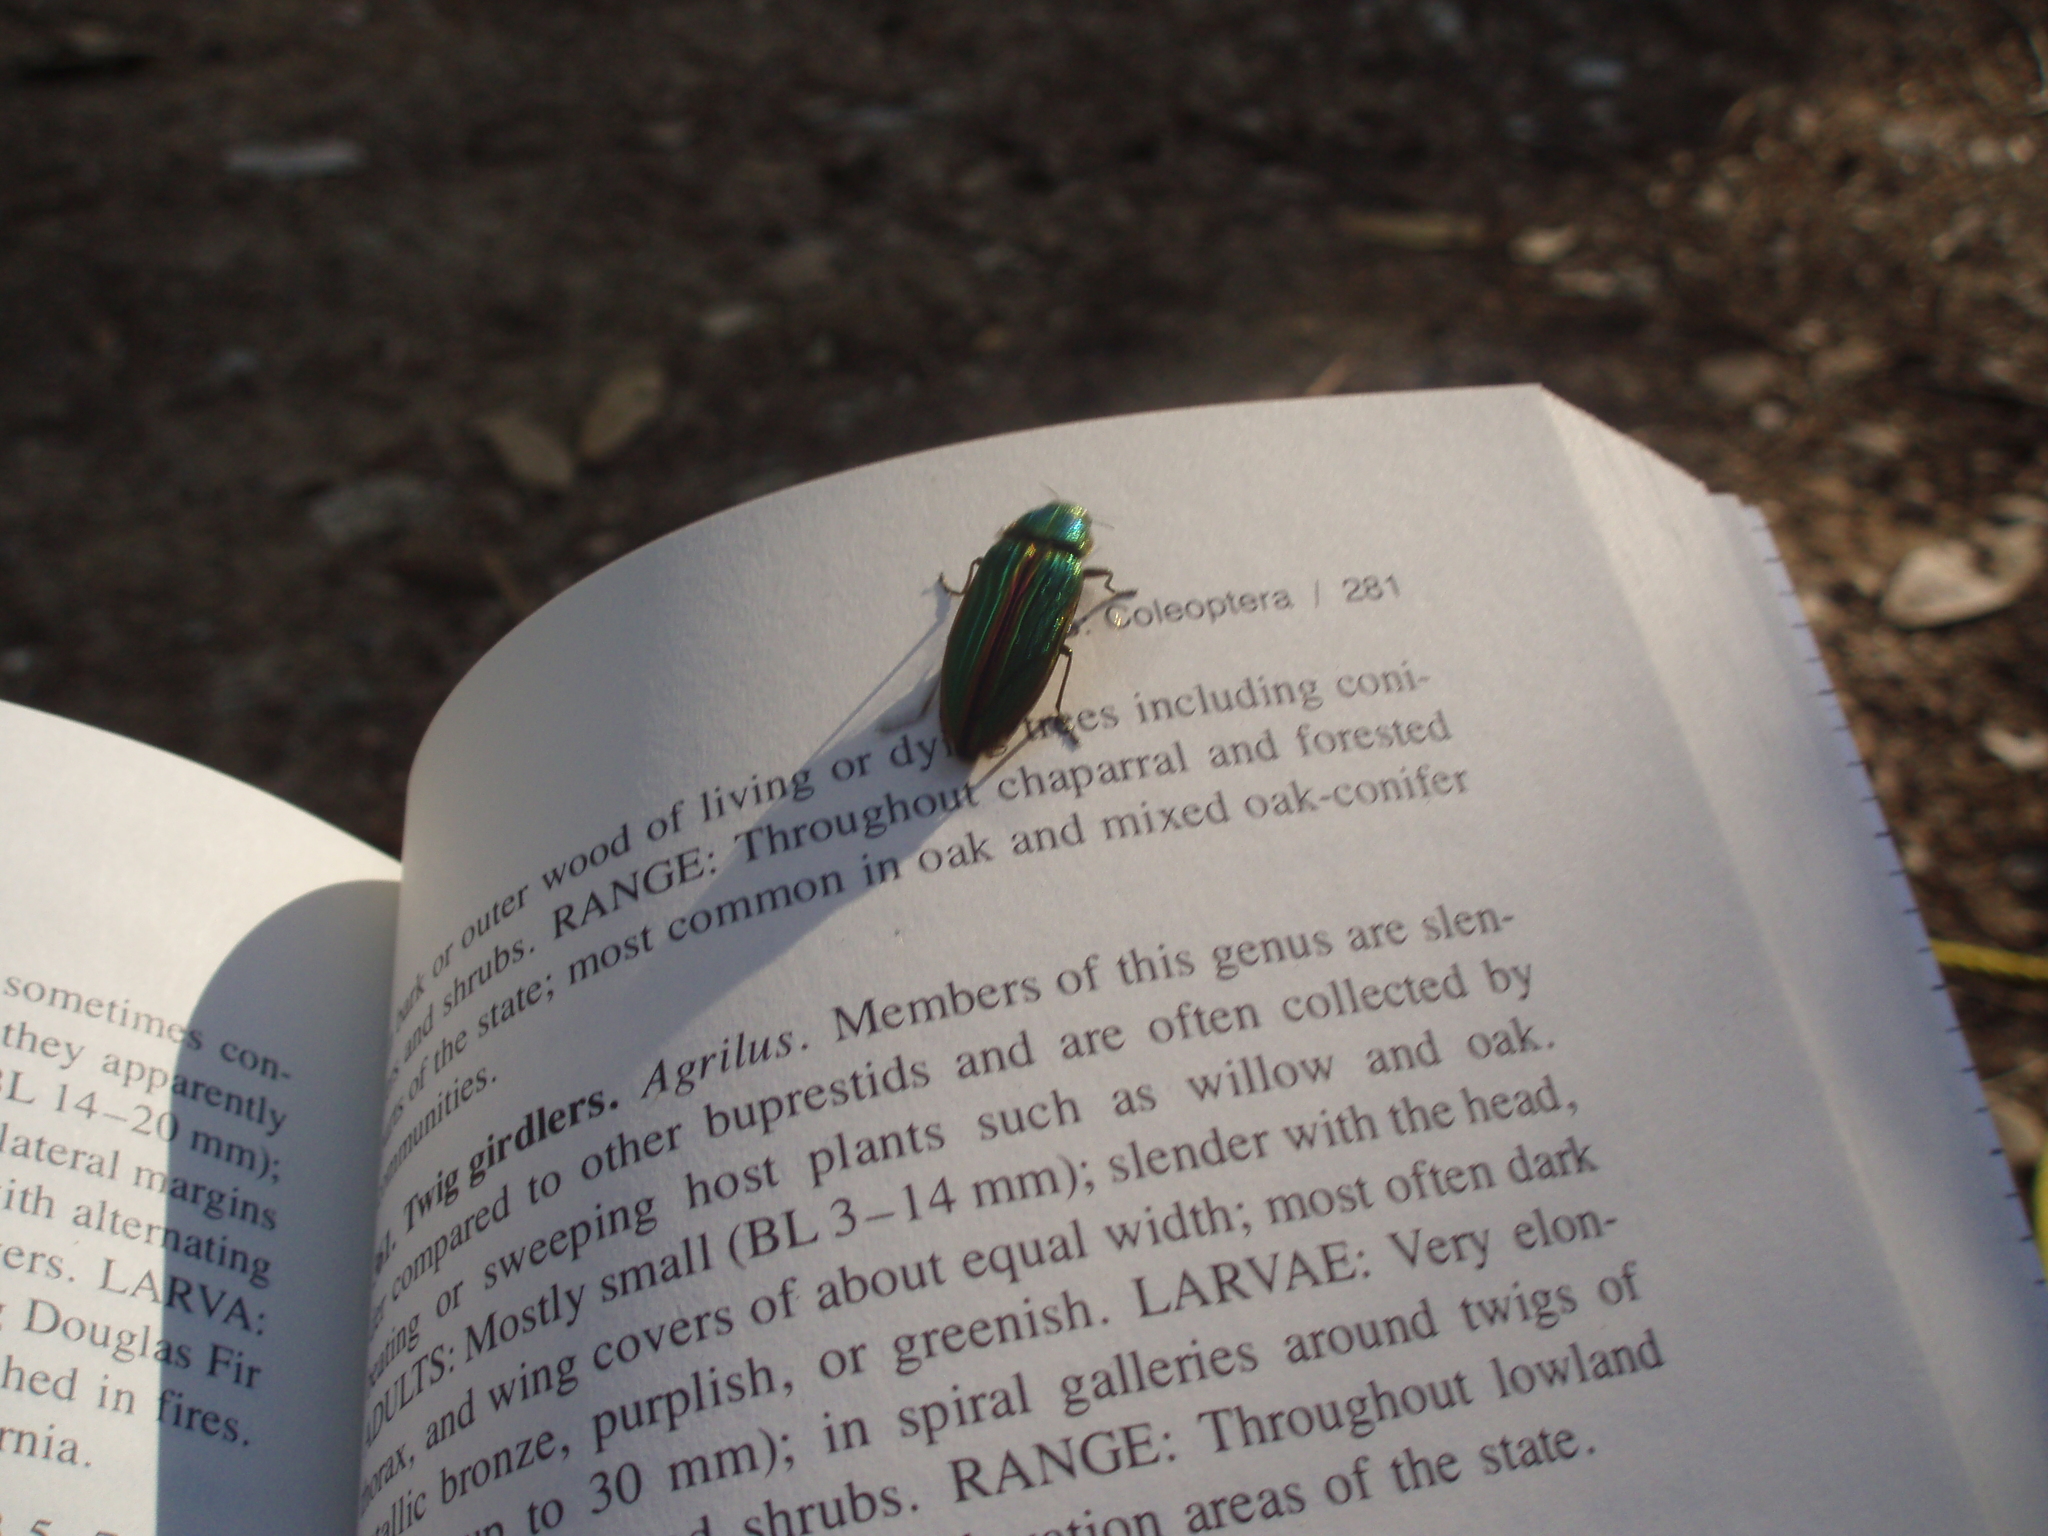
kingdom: Animalia
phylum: Arthropoda
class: Insecta
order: Coleoptera
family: Buprestidae
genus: Buprestis
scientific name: Buprestis aurulenta
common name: Golden buprestid
